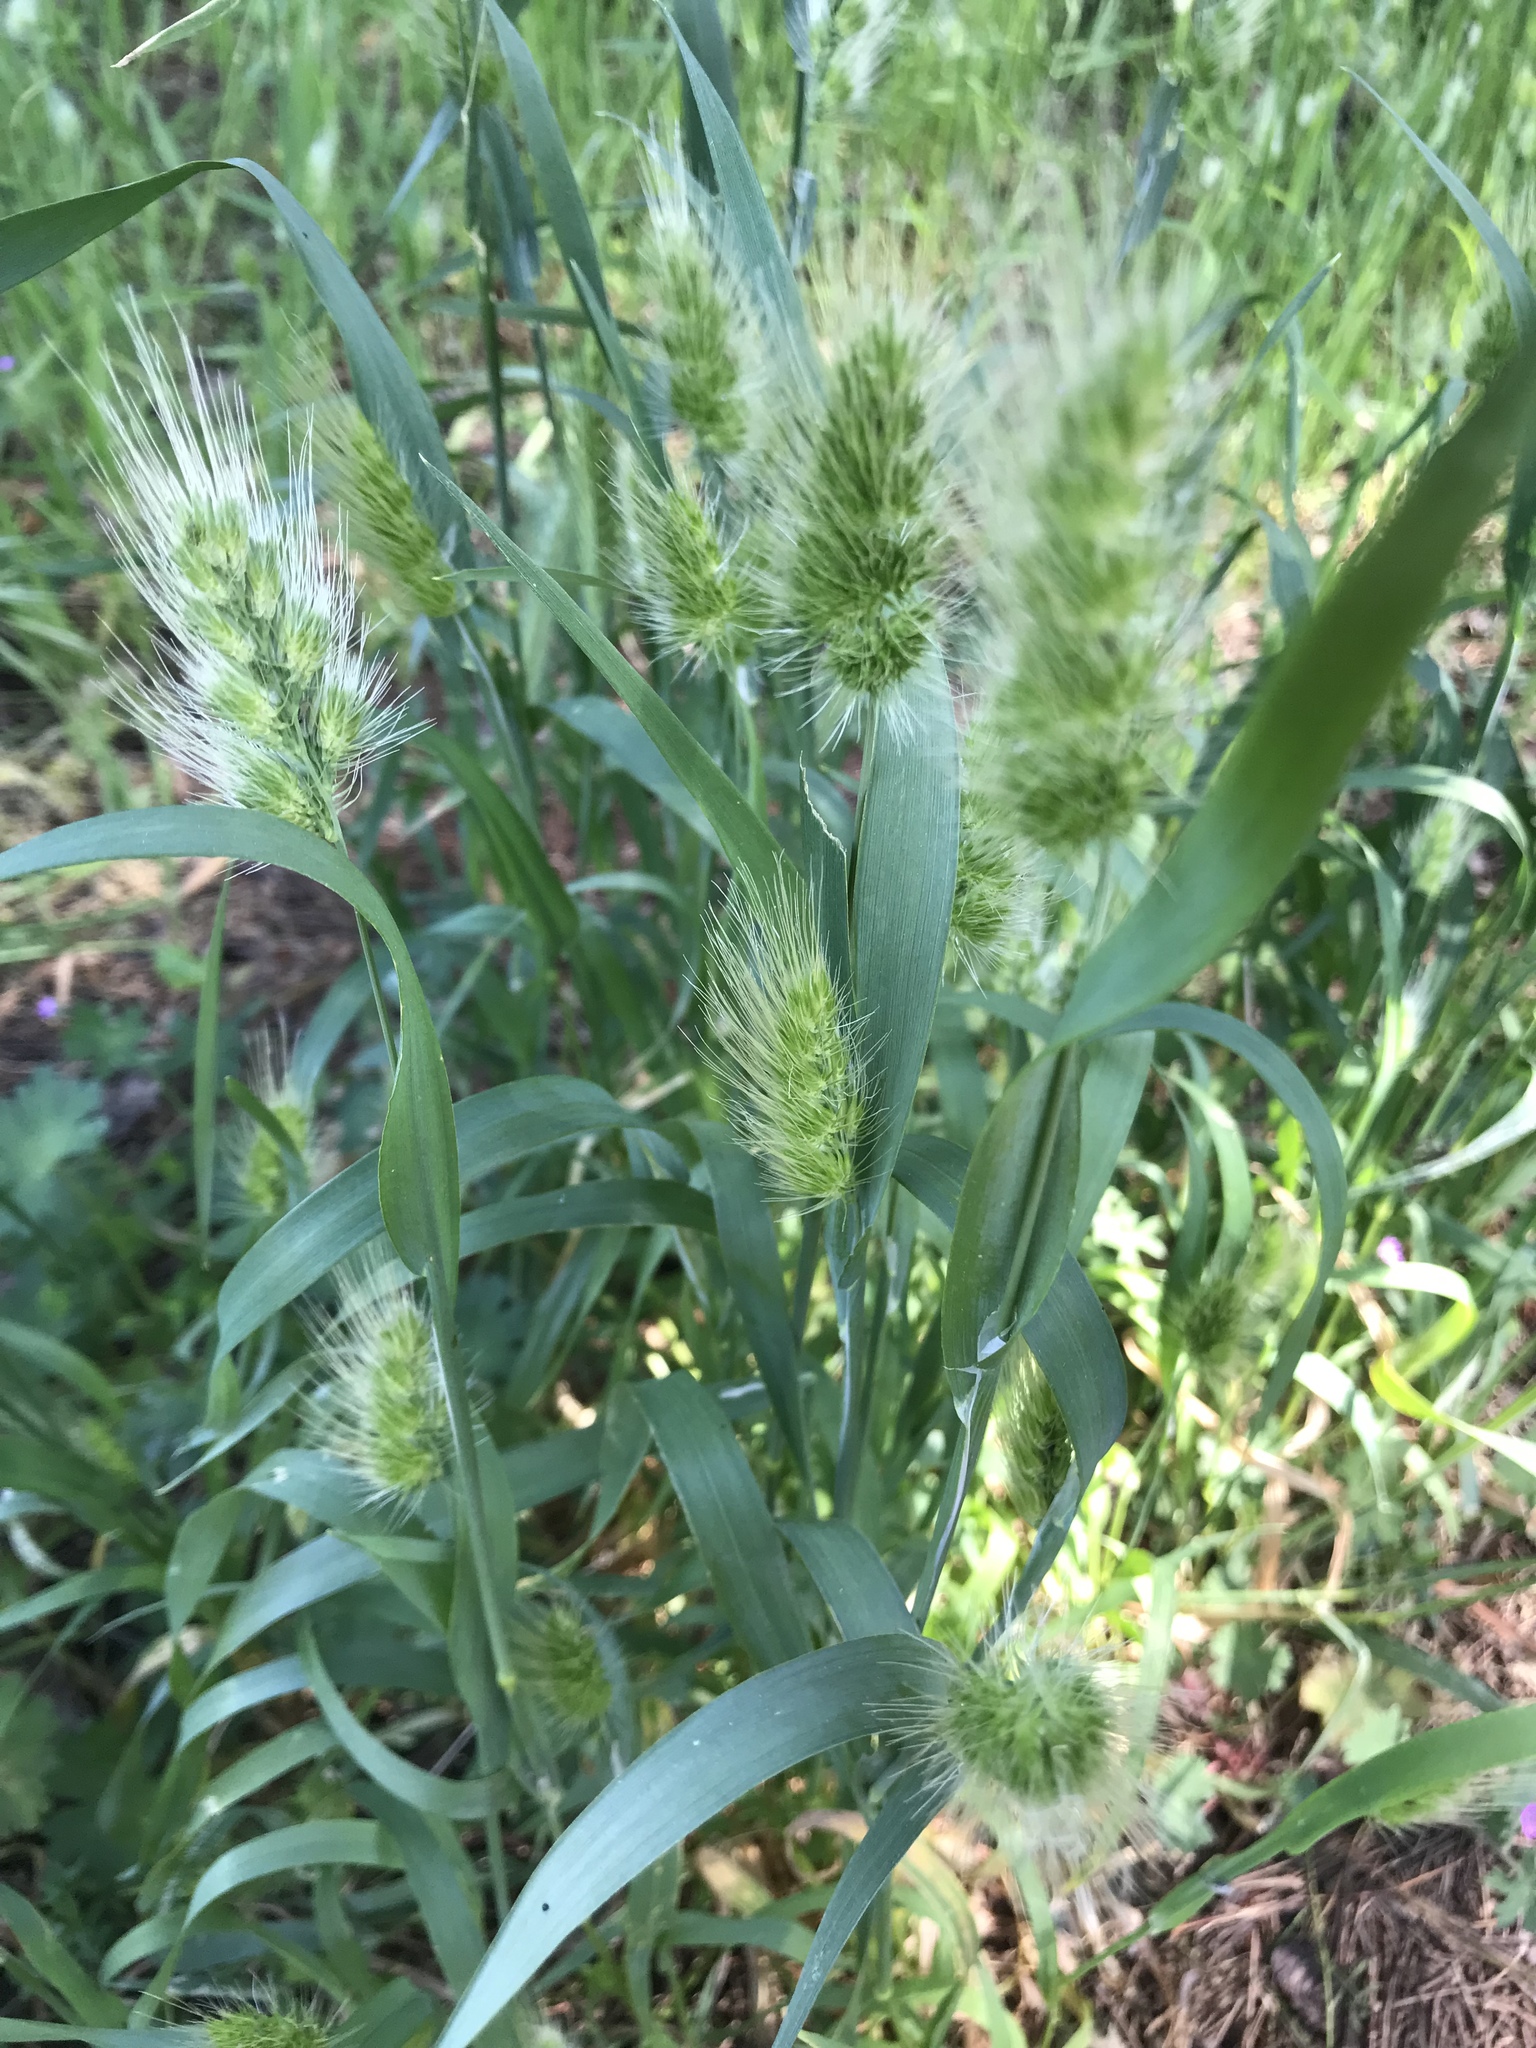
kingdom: Plantae
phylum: Tracheophyta
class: Liliopsida
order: Poales
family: Poaceae
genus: Cynosurus
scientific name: Cynosurus echinatus
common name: Rough dog's-tail
